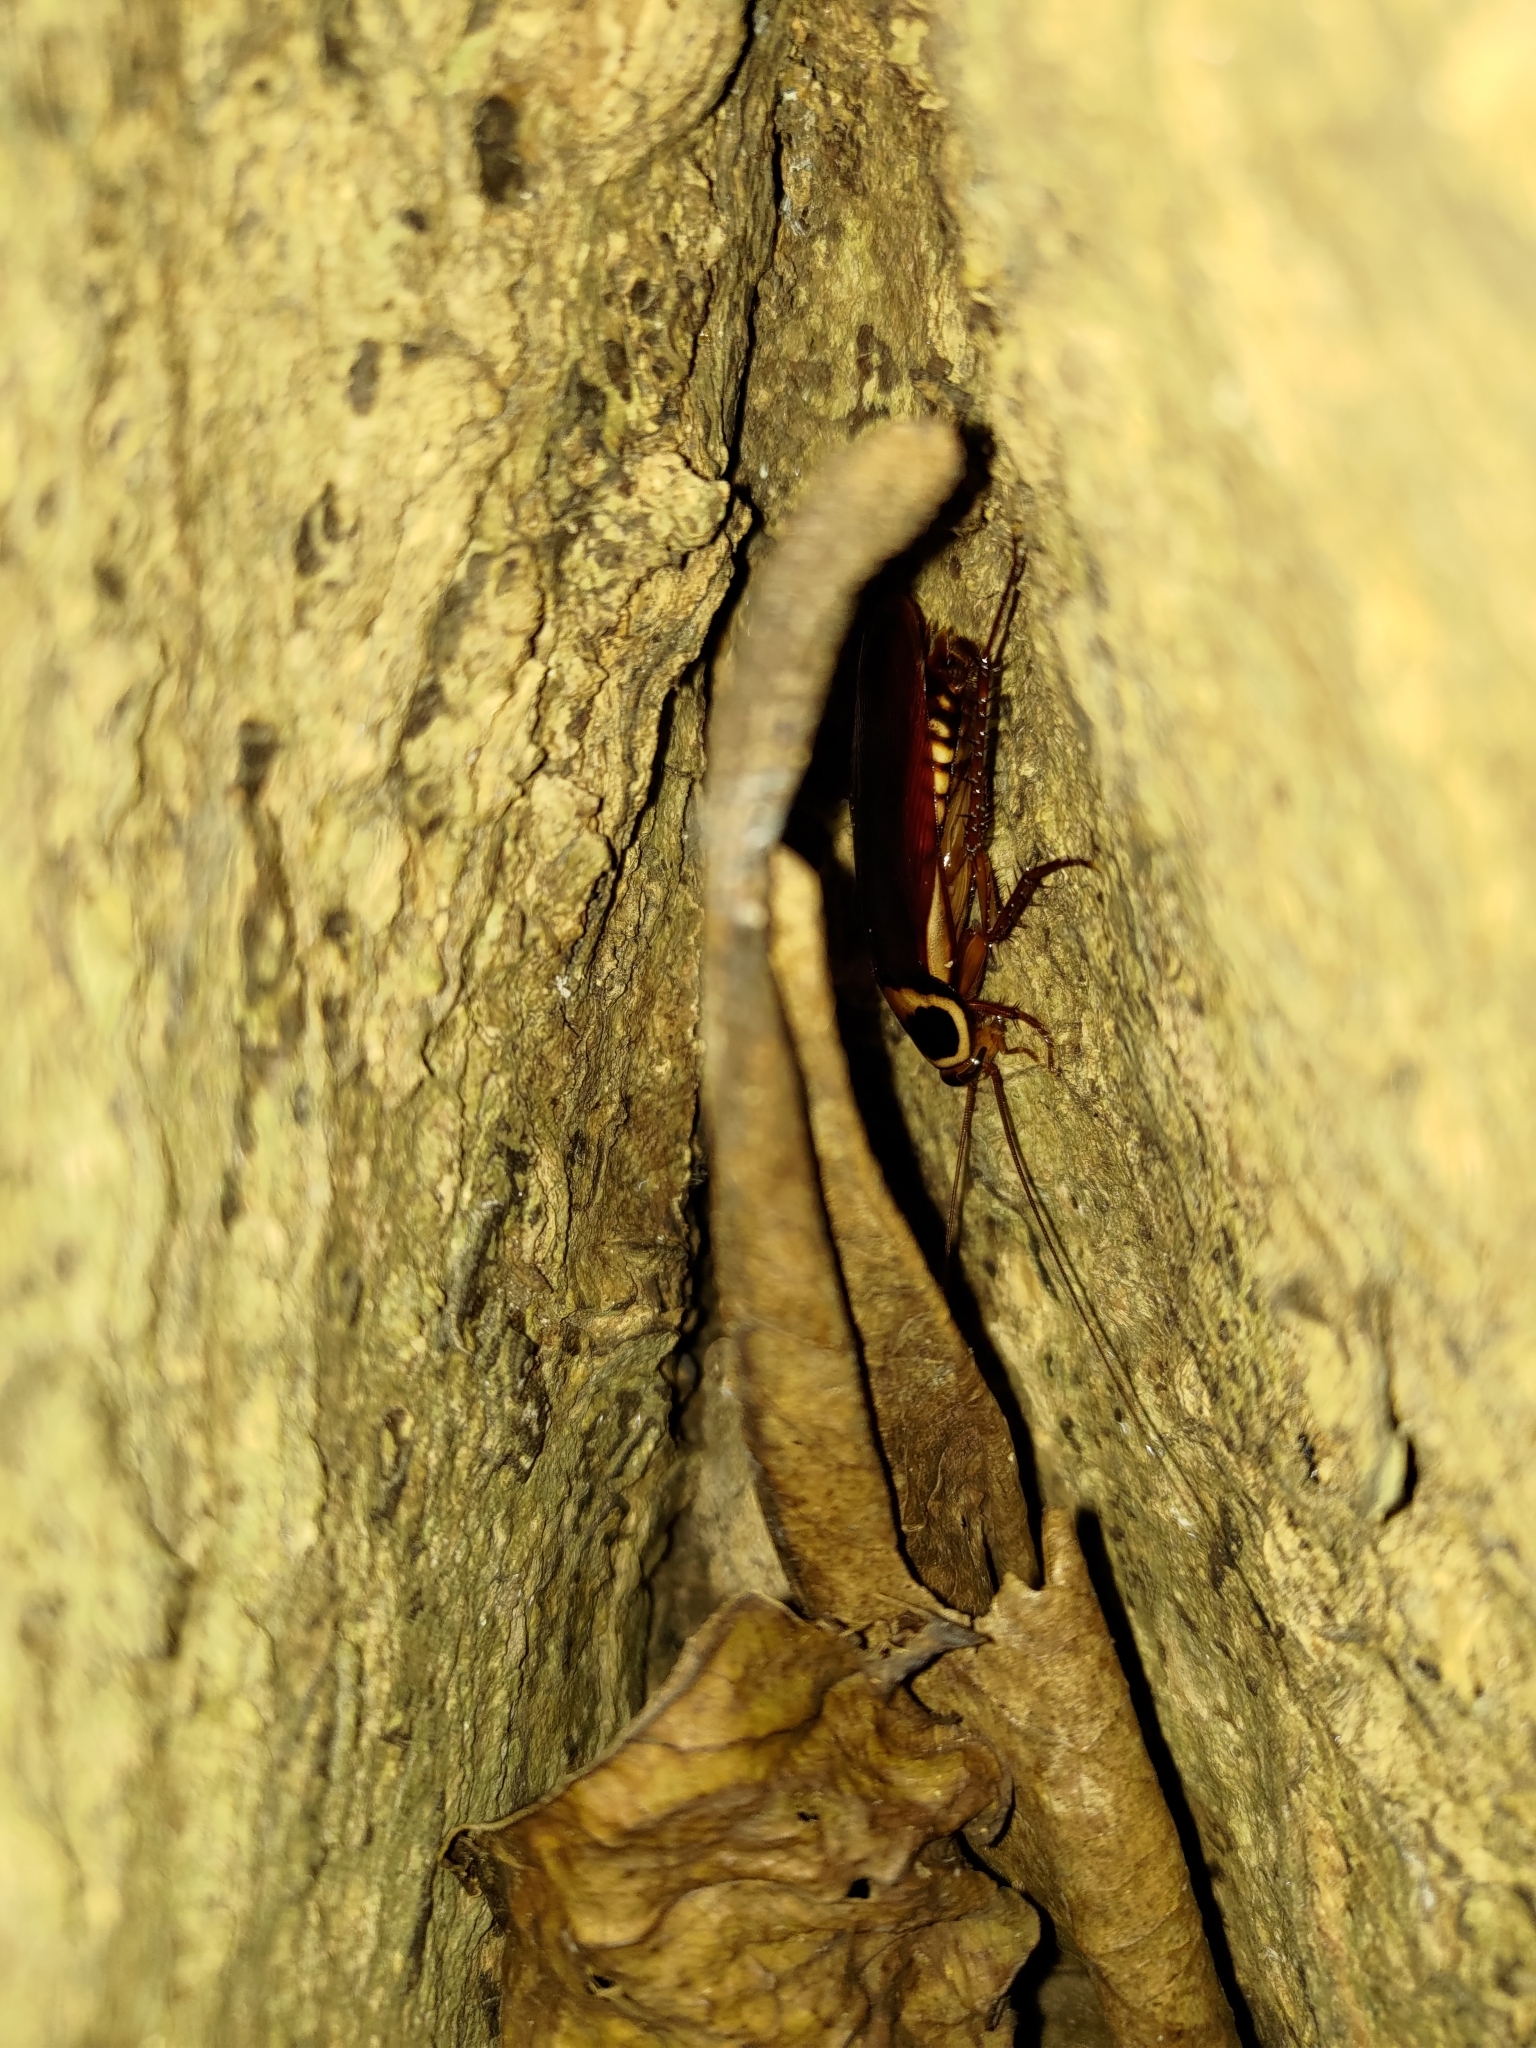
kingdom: Animalia
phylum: Arthropoda
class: Insecta
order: Blattodea
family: Blattidae
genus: Periplaneta
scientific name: Periplaneta australasiae
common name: Australian cockroach
